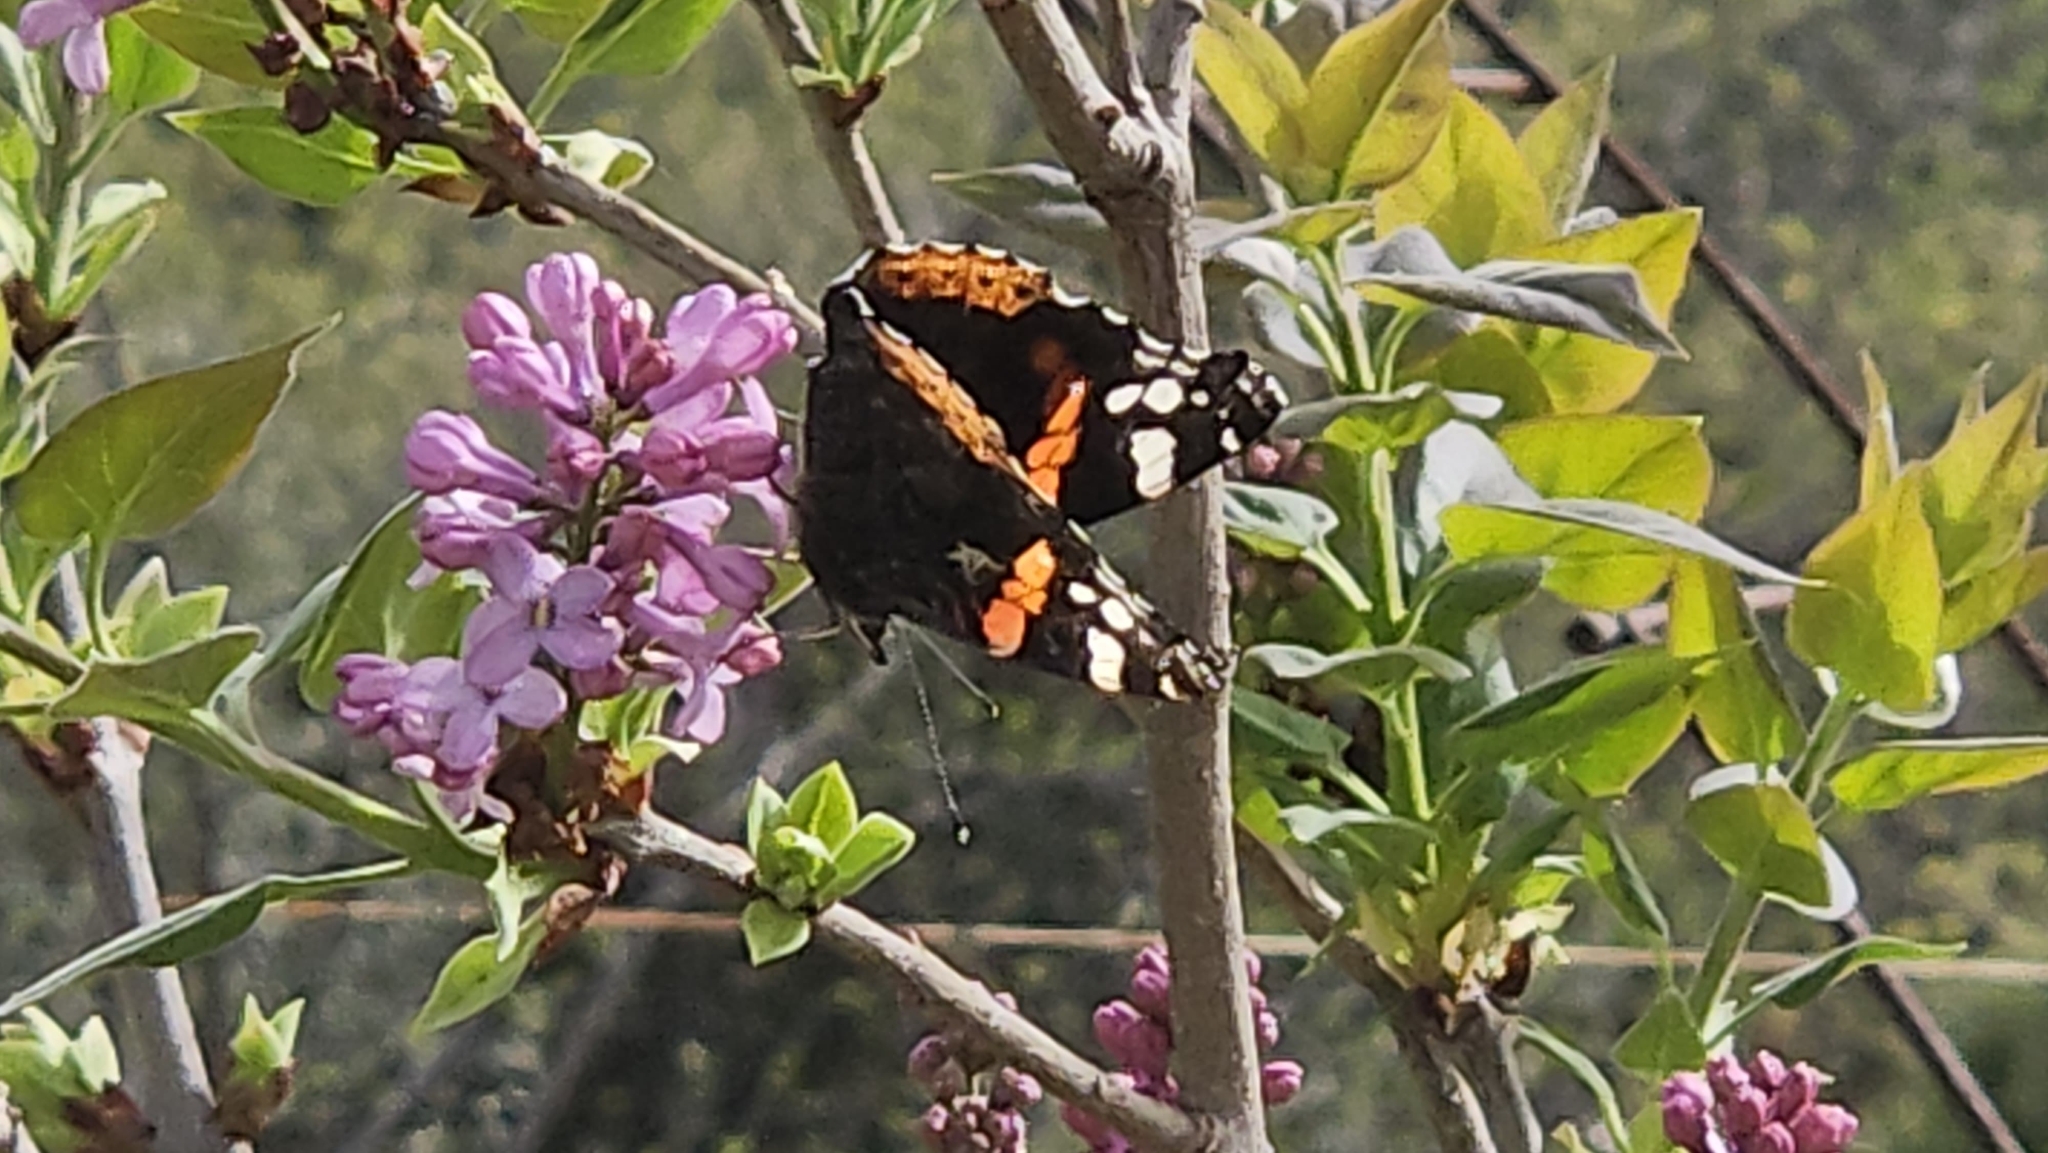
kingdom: Animalia
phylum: Arthropoda
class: Insecta
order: Lepidoptera
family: Nymphalidae
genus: Vanessa
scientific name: Vanessa atalanta
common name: Red admiral
